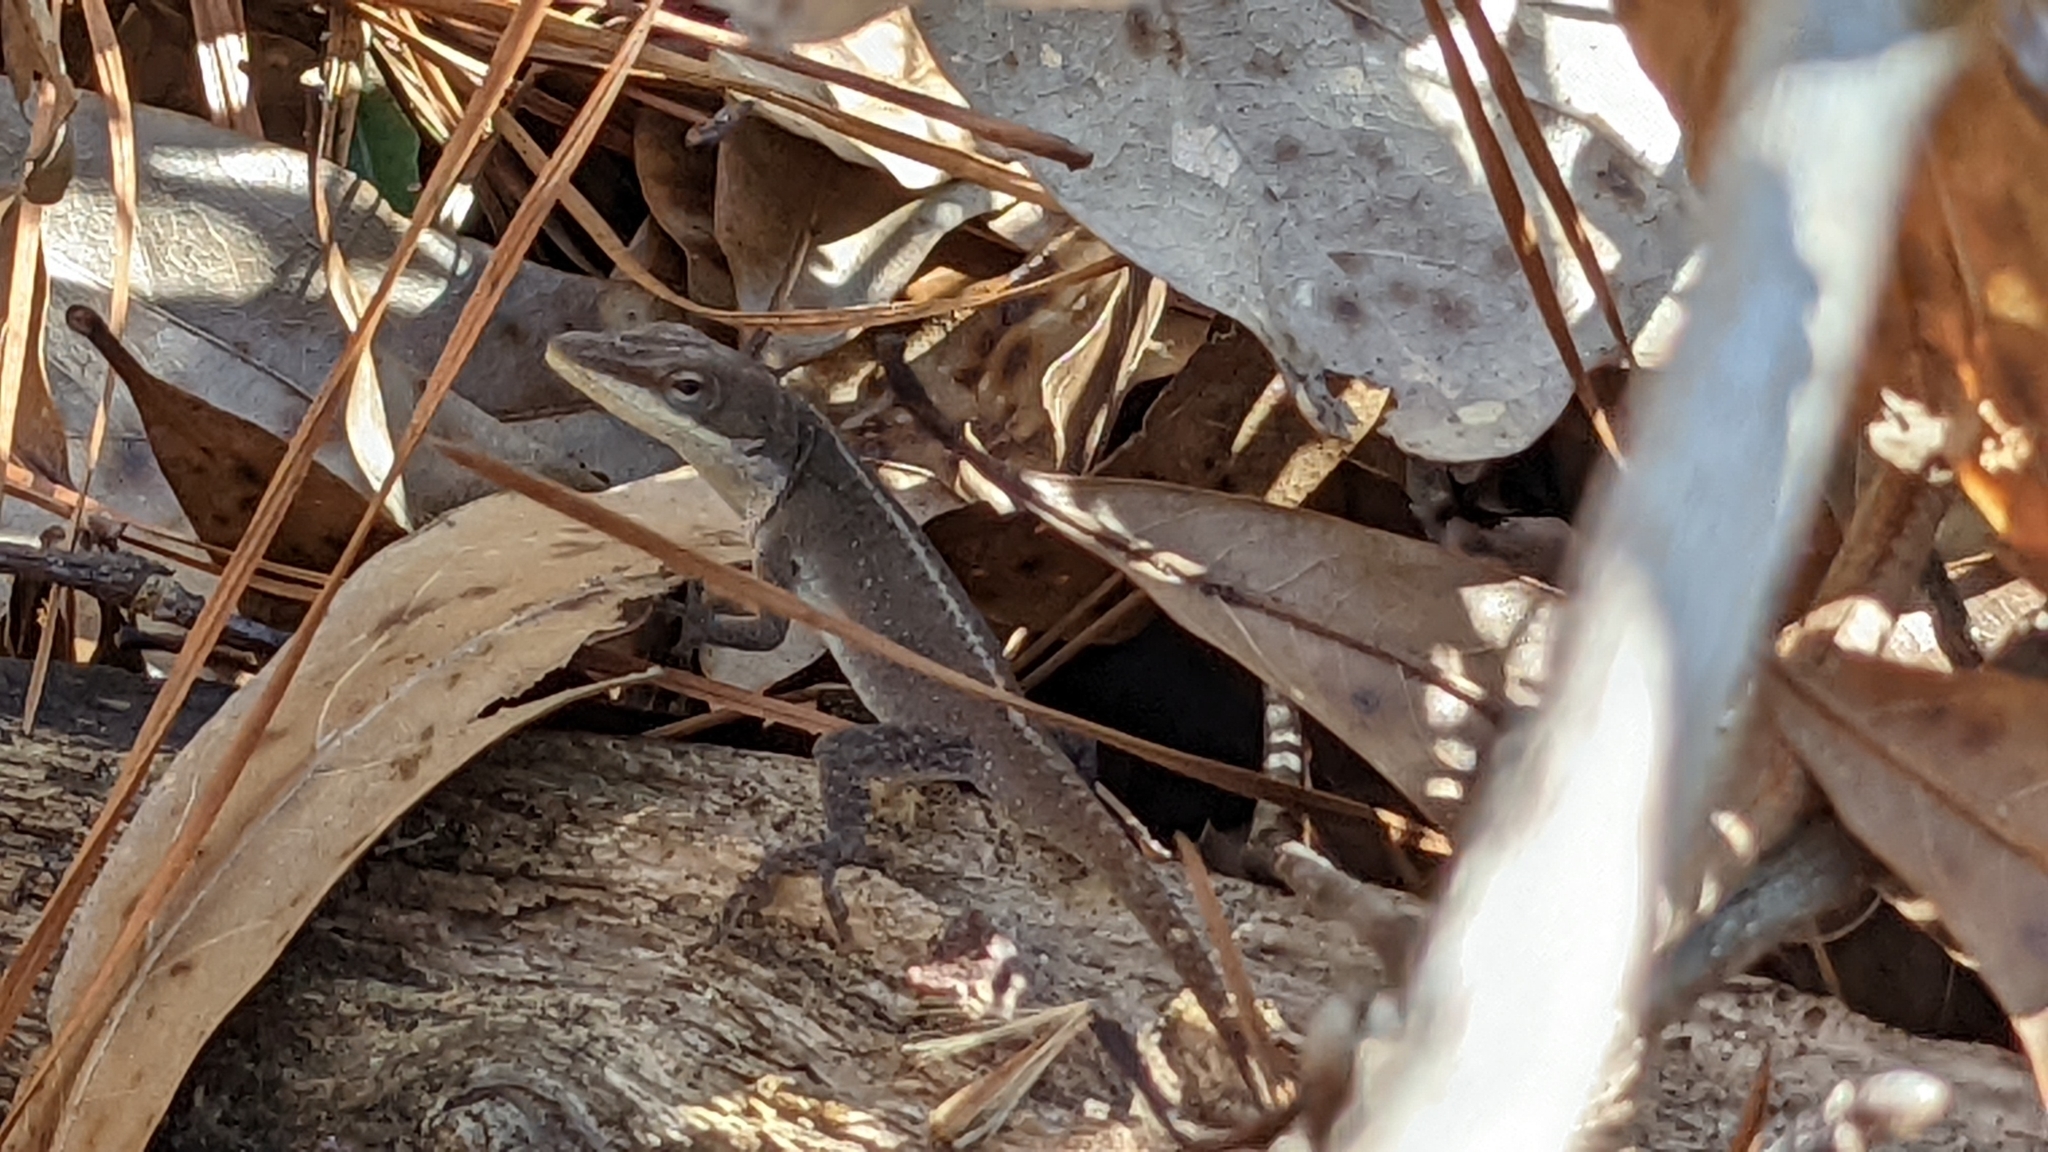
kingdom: Animalia
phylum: Chordata
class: Squamata
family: Dactyloidae
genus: Anolis
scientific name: Anolis carolinensis
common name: Green anole
